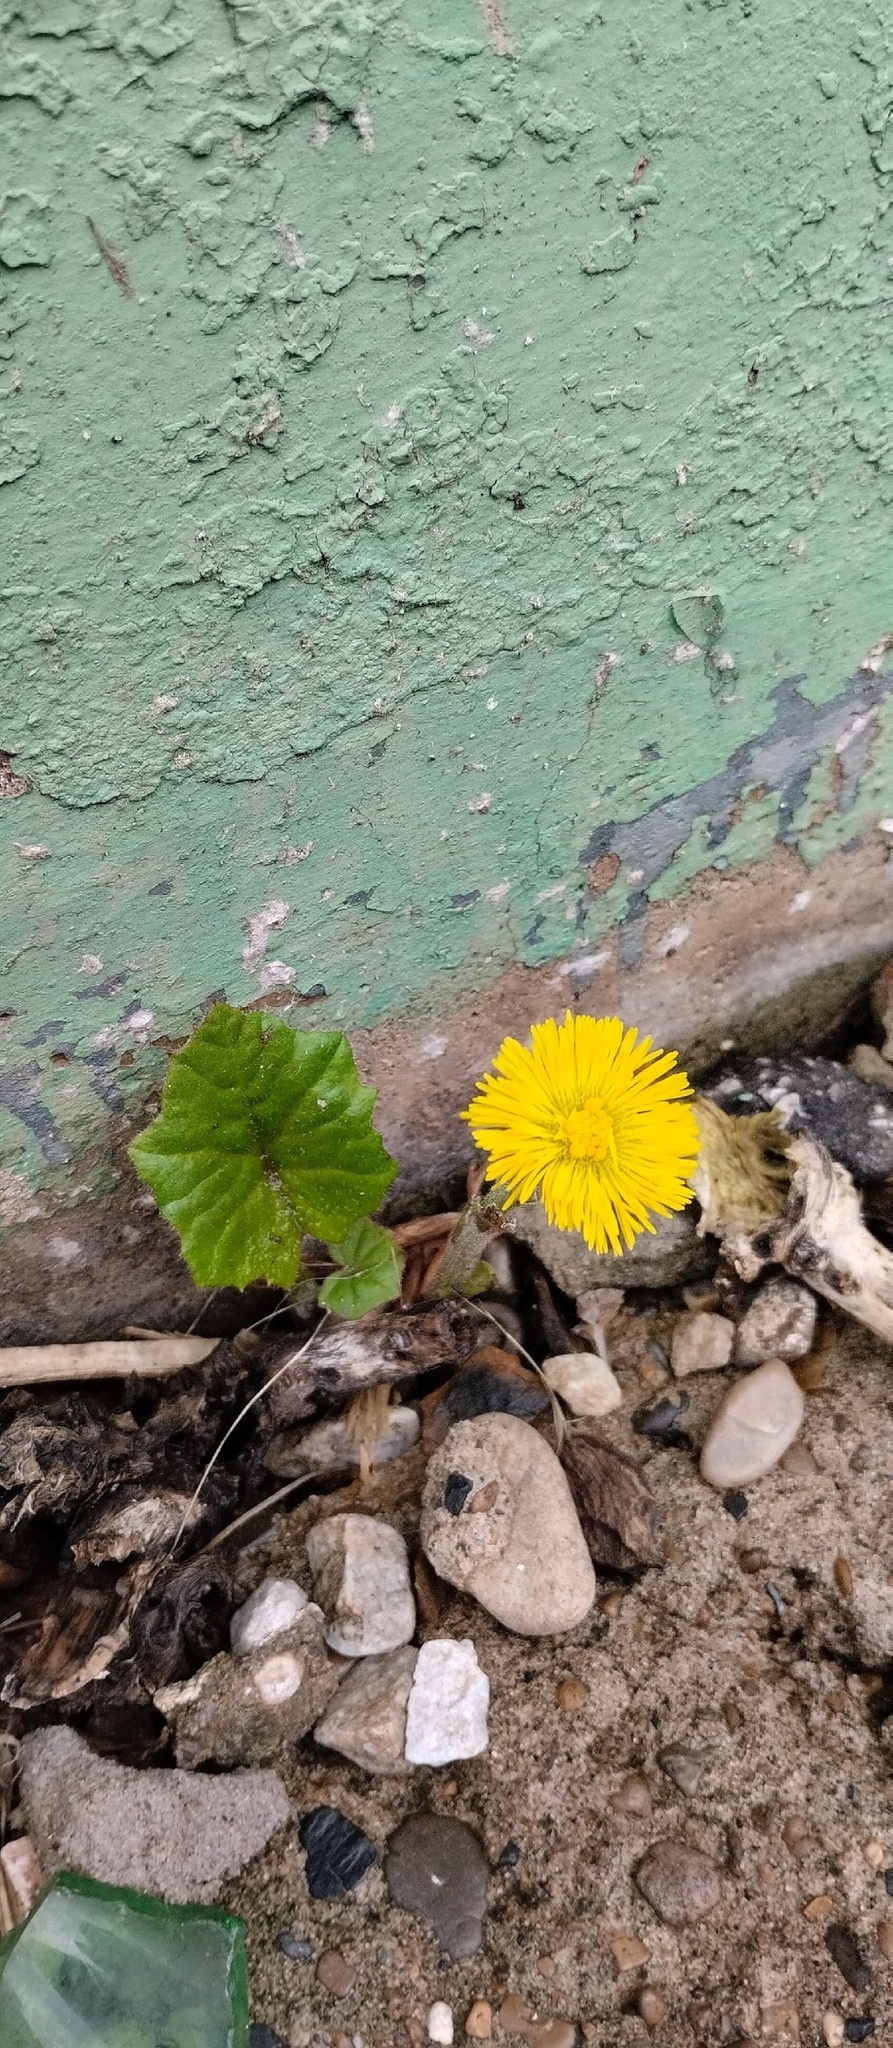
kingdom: Plantae
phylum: Tracheophyta
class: Magnoliopsida
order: Asterales
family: Asteraceae
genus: Tussilago
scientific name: Tussilago farfara
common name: Coltsfoot
